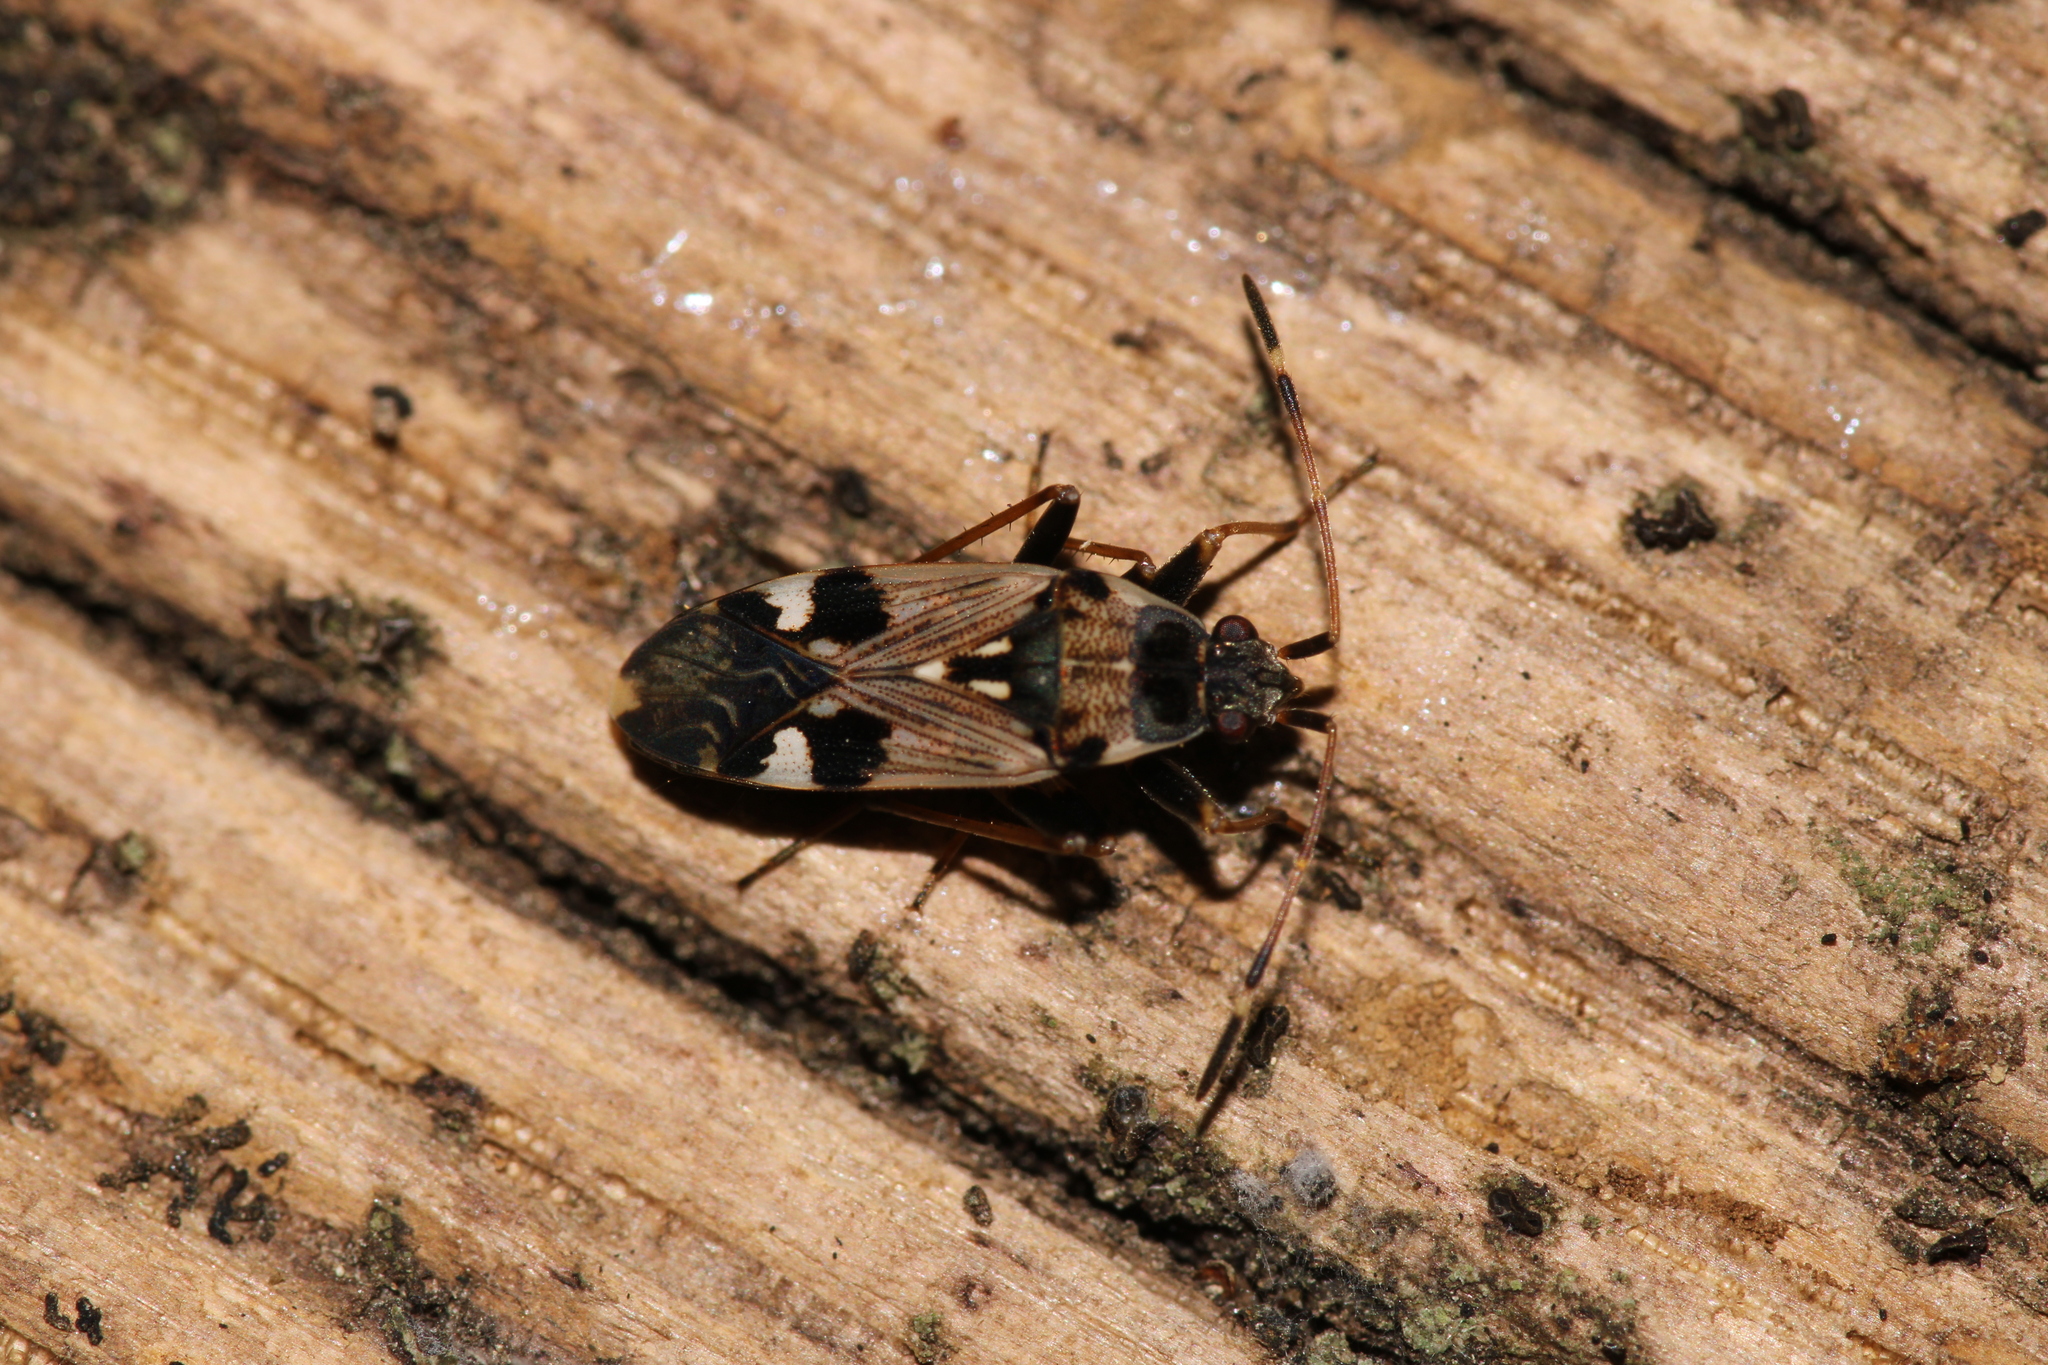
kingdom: Animalia
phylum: Arthropoda
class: Insecta
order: Hemiptera
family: Rhyparochromidae
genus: Beosus
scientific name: Beosus maritimus
